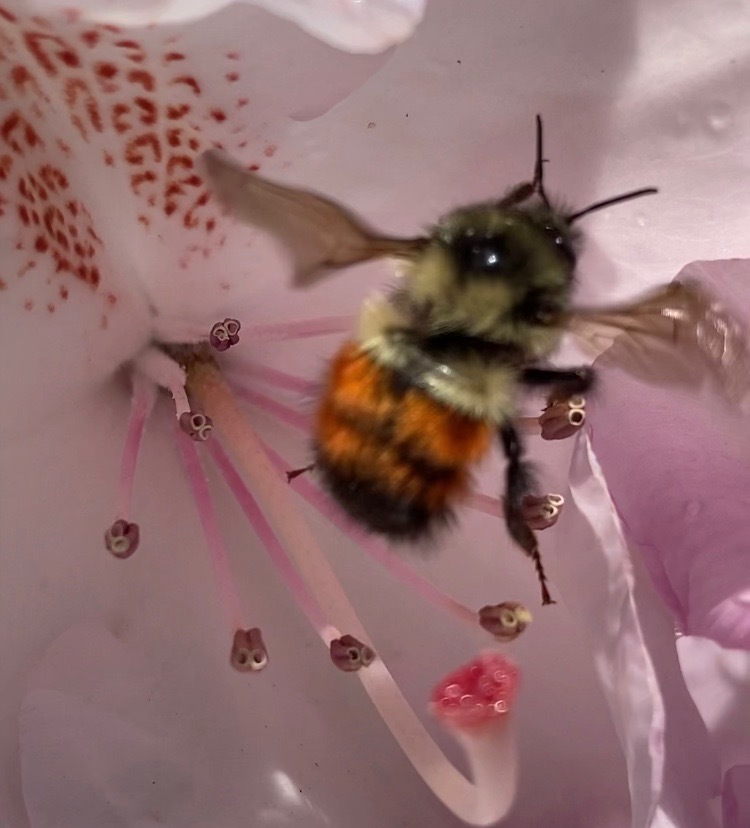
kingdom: Animalia
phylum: Arthropoda
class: Insecta
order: Hymenoptera
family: Apidae
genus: Bombus
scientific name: Bombus melanopygus
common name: Black tail bumble bee
